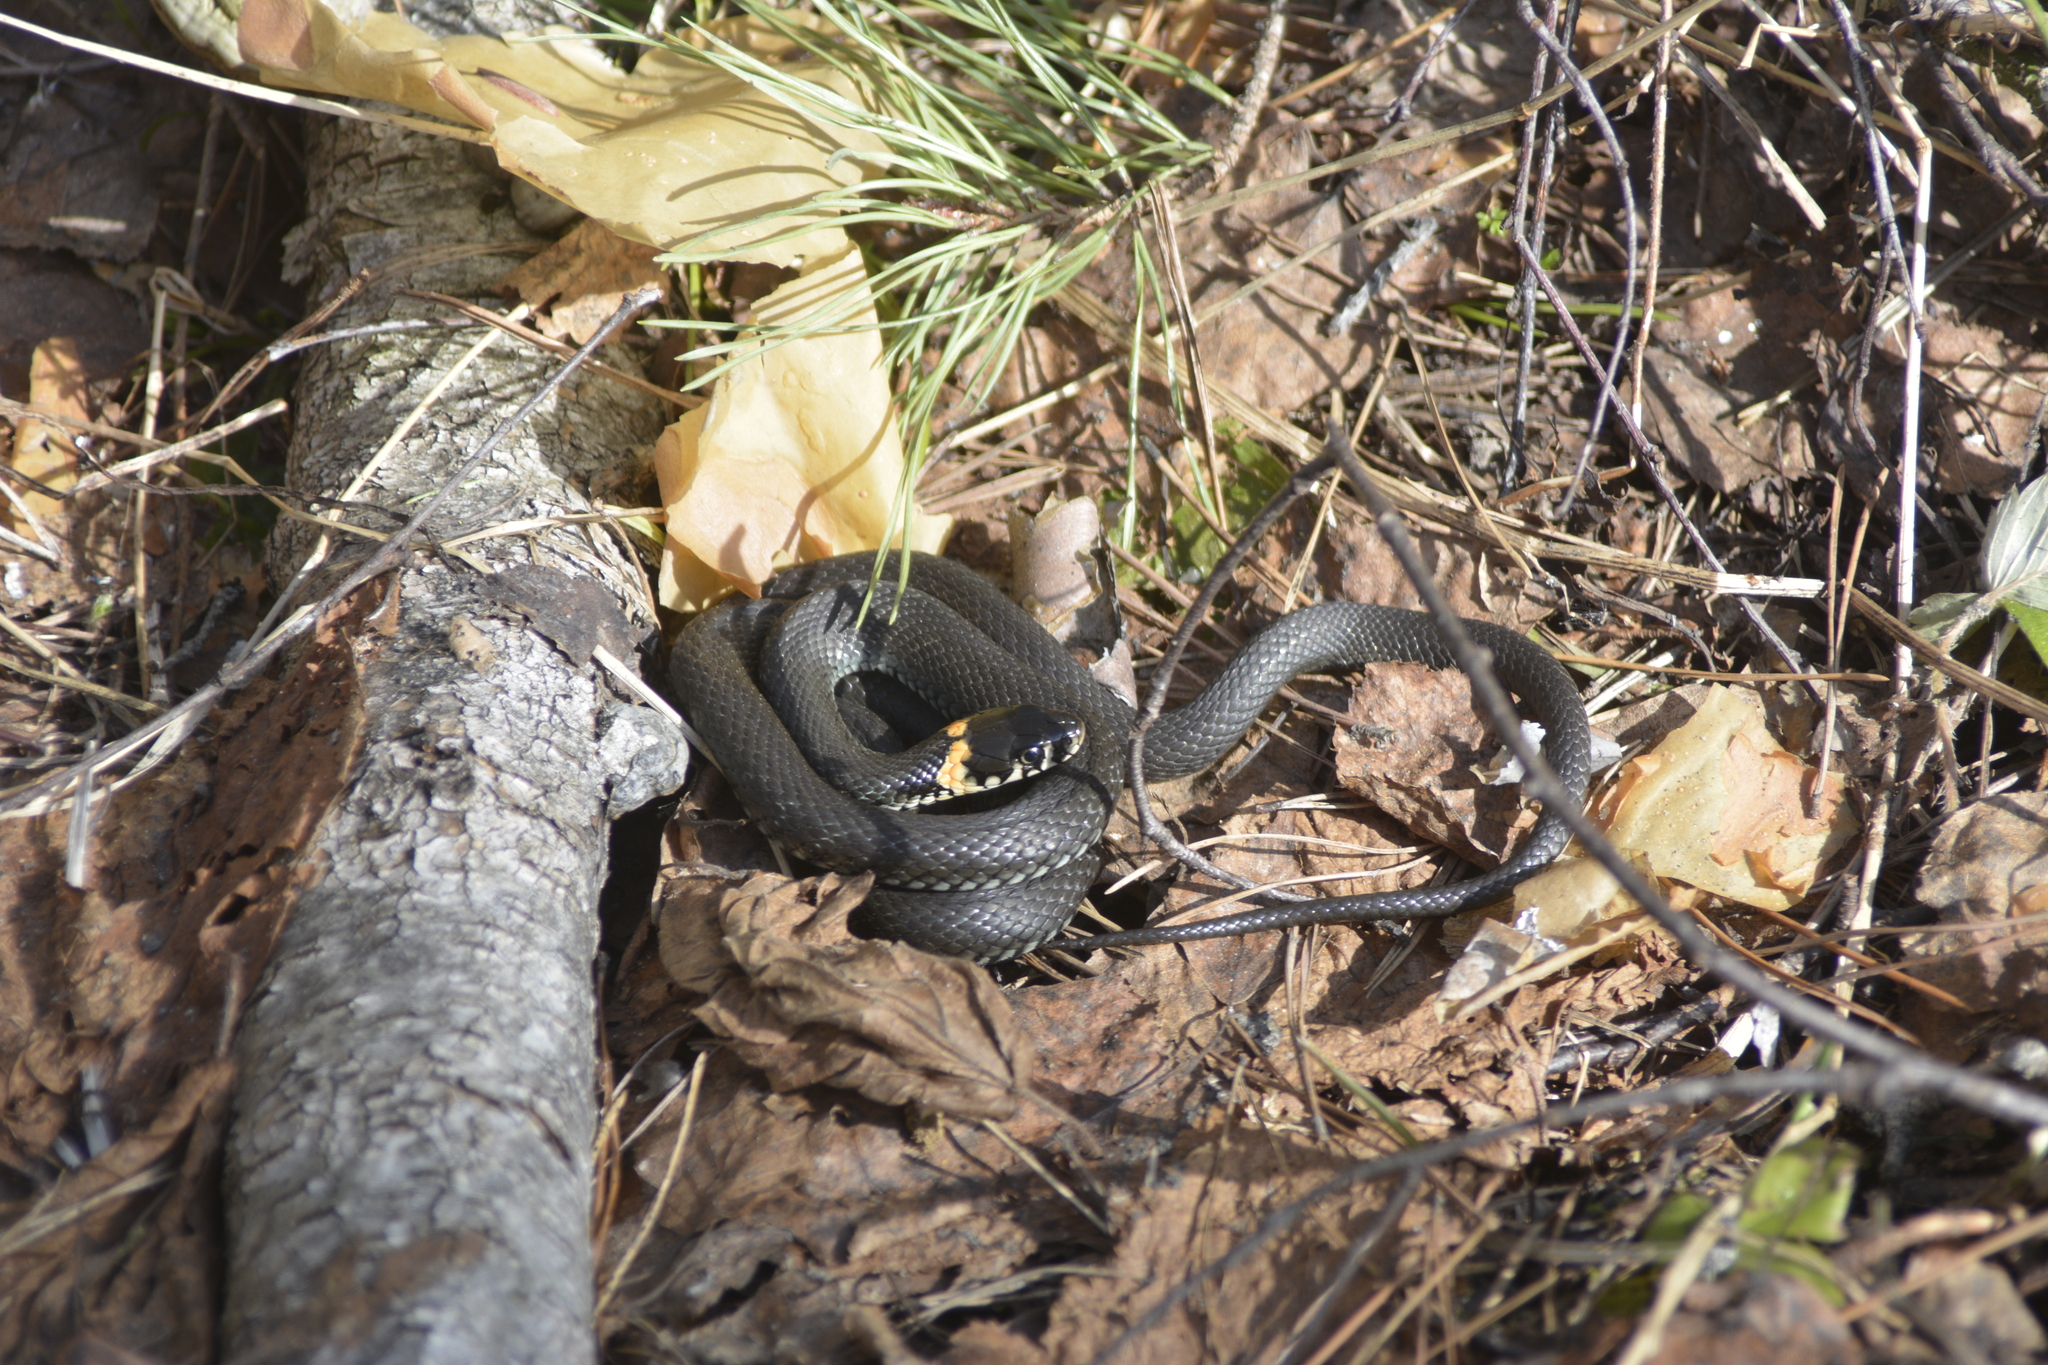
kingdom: Animalia
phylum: Chordata
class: Squamata
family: Colubridae
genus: Natrix
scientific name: Natrix natrix
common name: Grass snake
